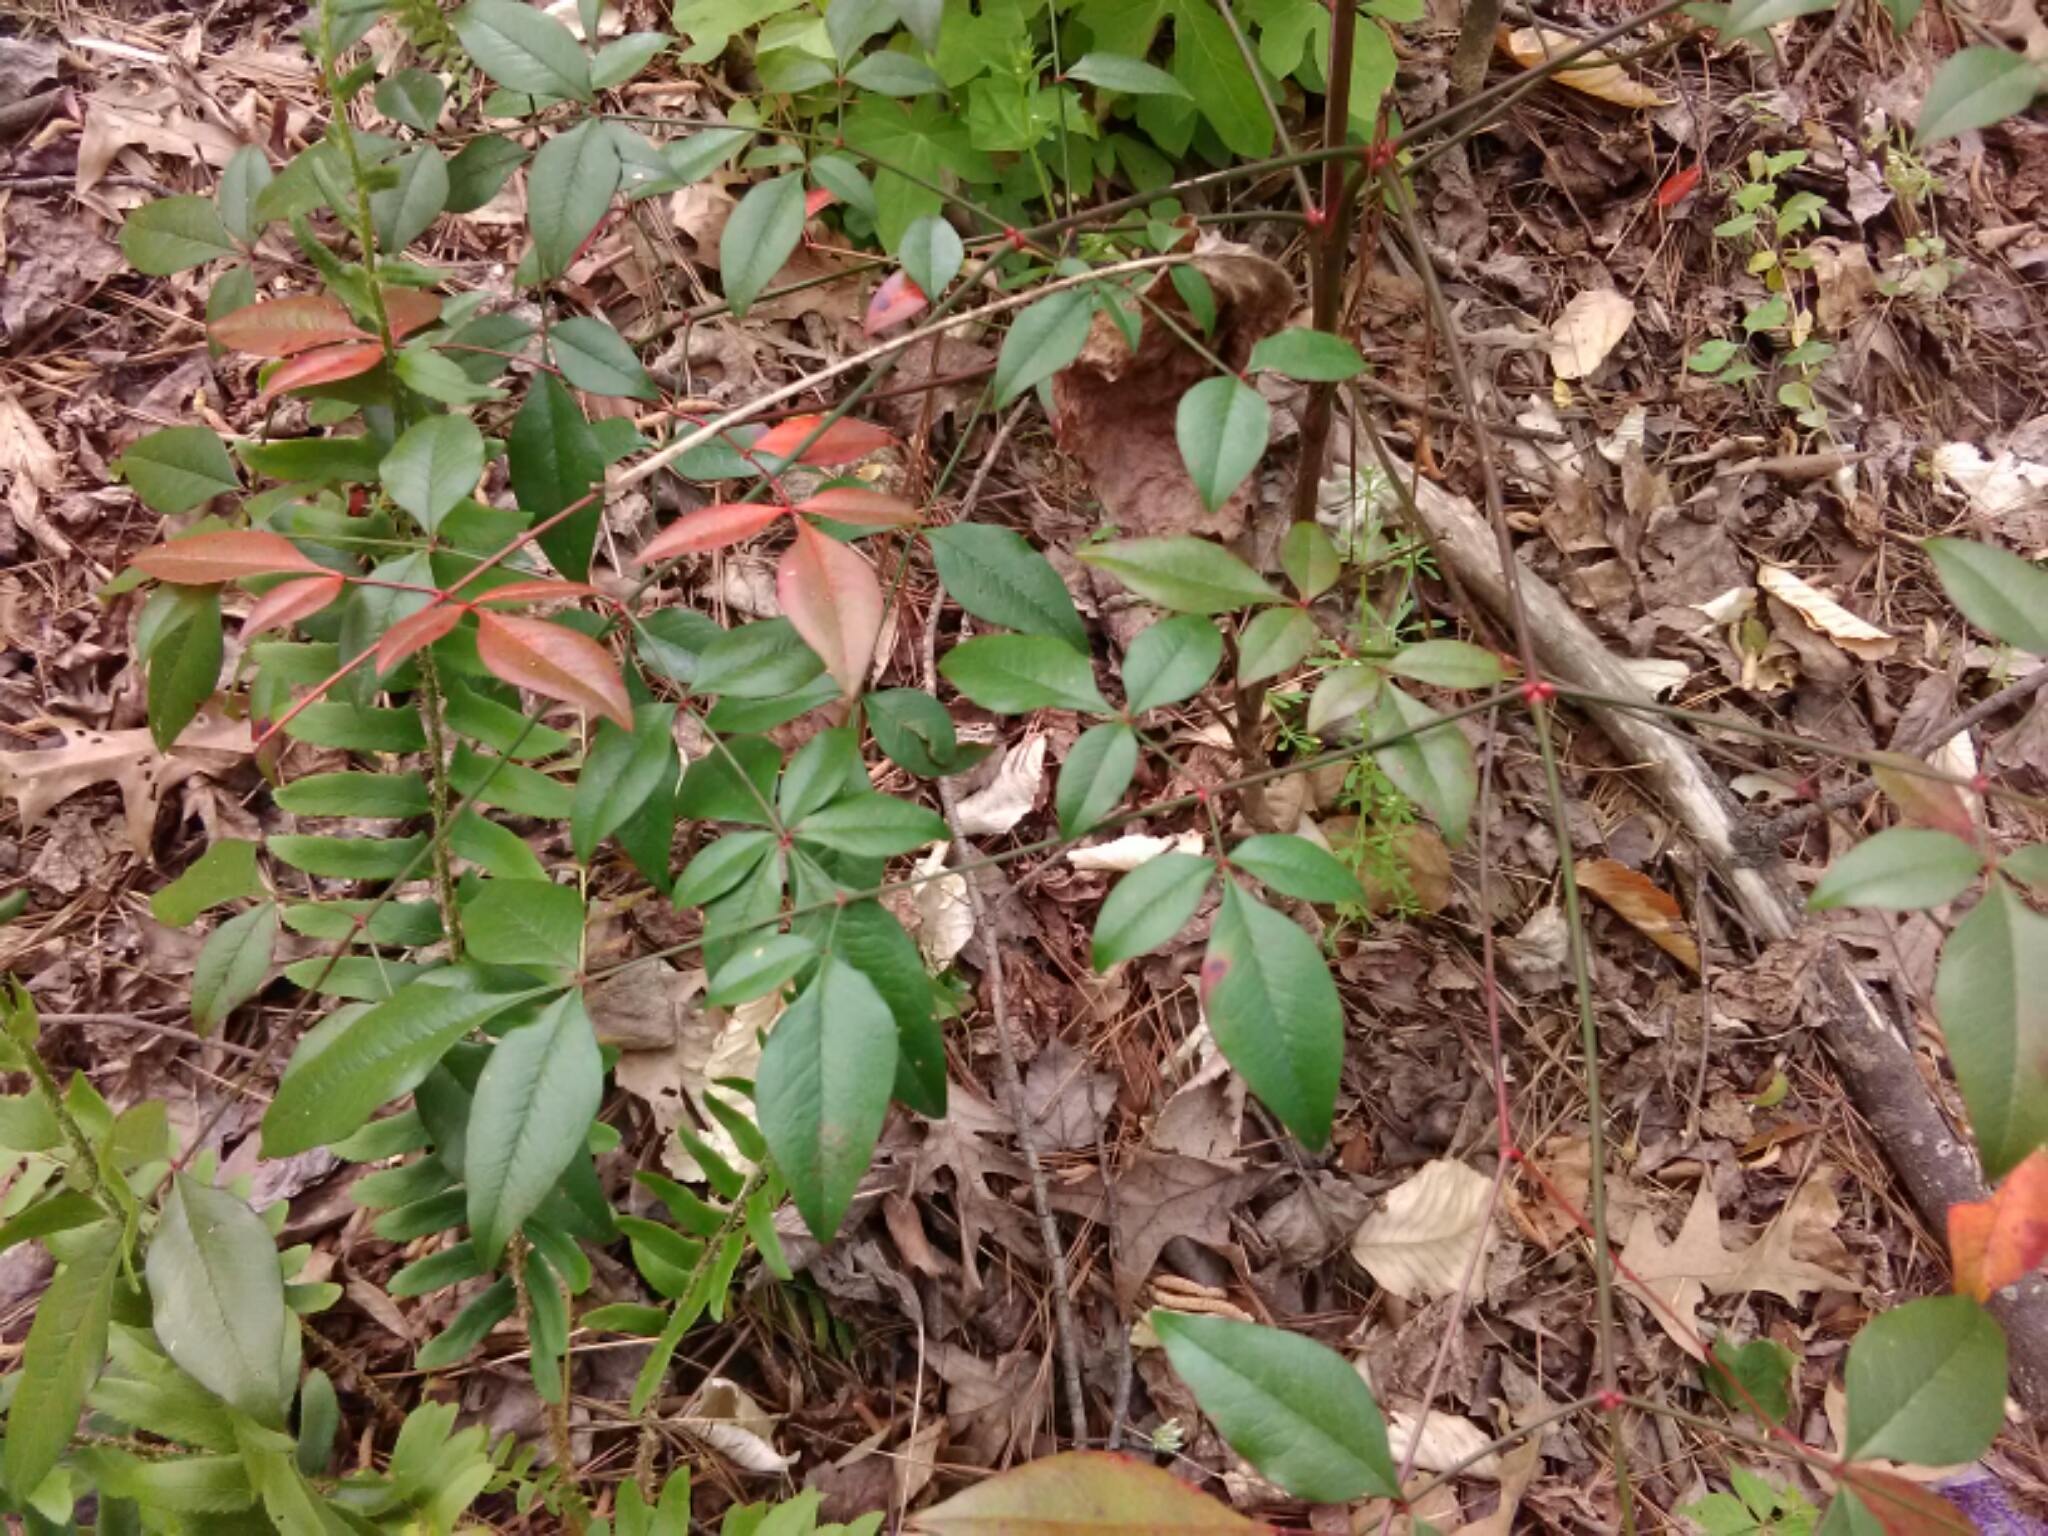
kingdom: Plantae
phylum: Tracheophyta
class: Magnoliopsida
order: Ranunculales
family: Berberidaceae
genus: Nandina
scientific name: Nandina domestica
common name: Sacred bamboo
